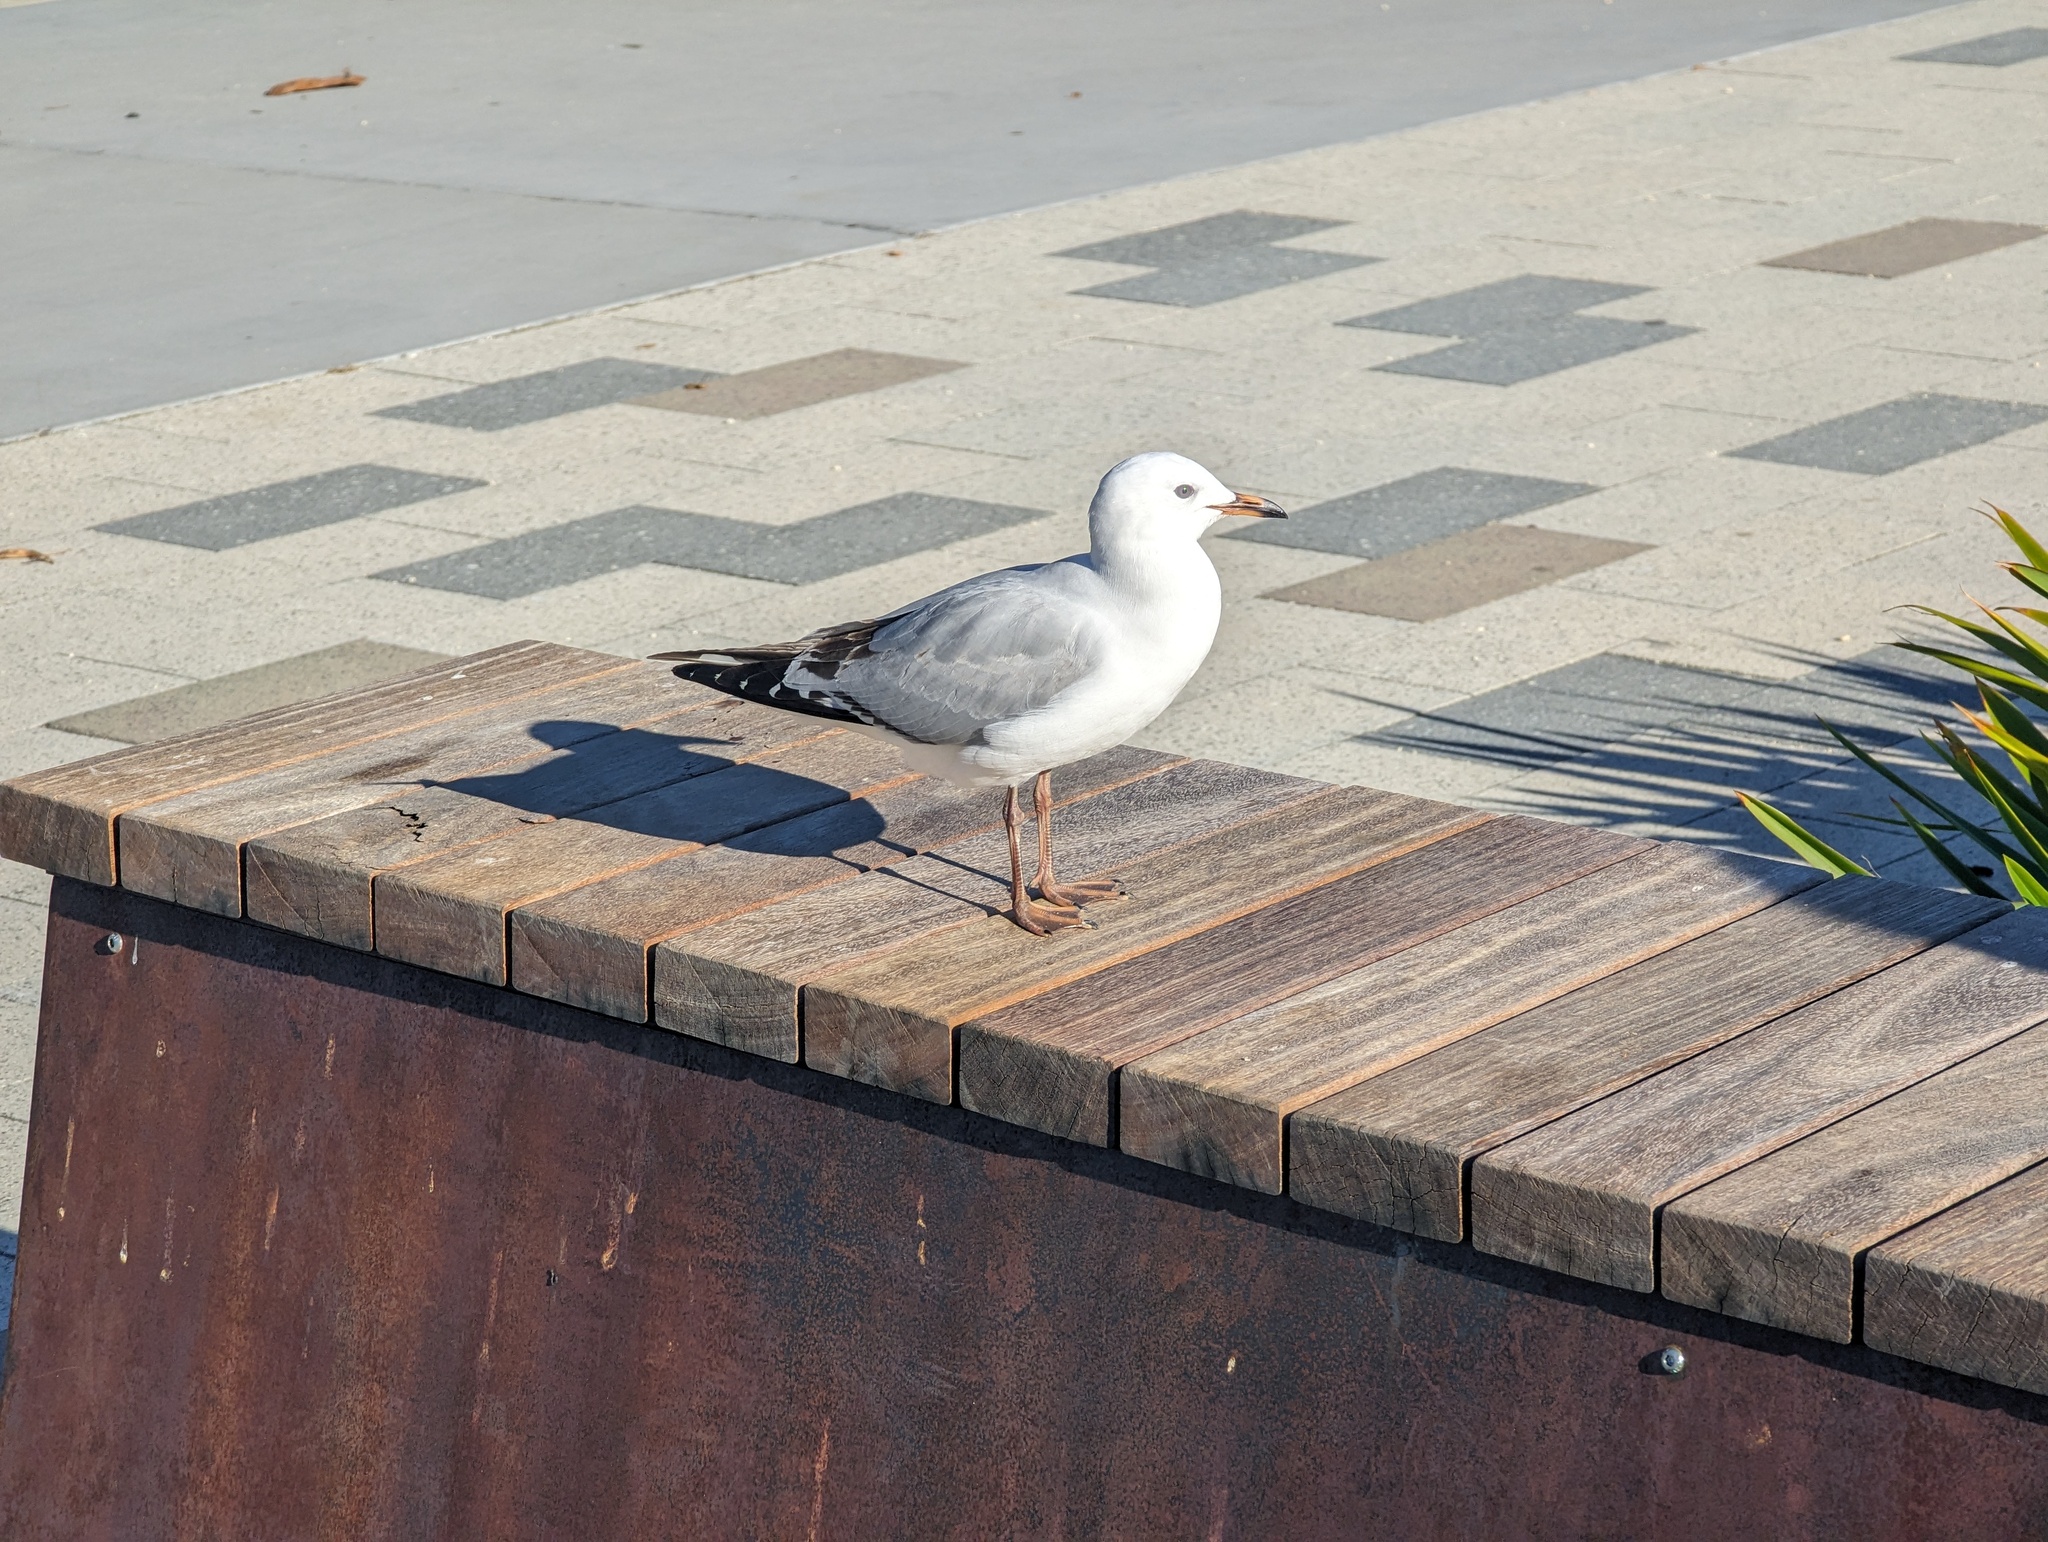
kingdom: Animalia
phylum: Chordata
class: Aves
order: Charadriiformes
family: Laridae
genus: Chroicocephalus
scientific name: Chroicocephalus novaehollandiae
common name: Silver gull
